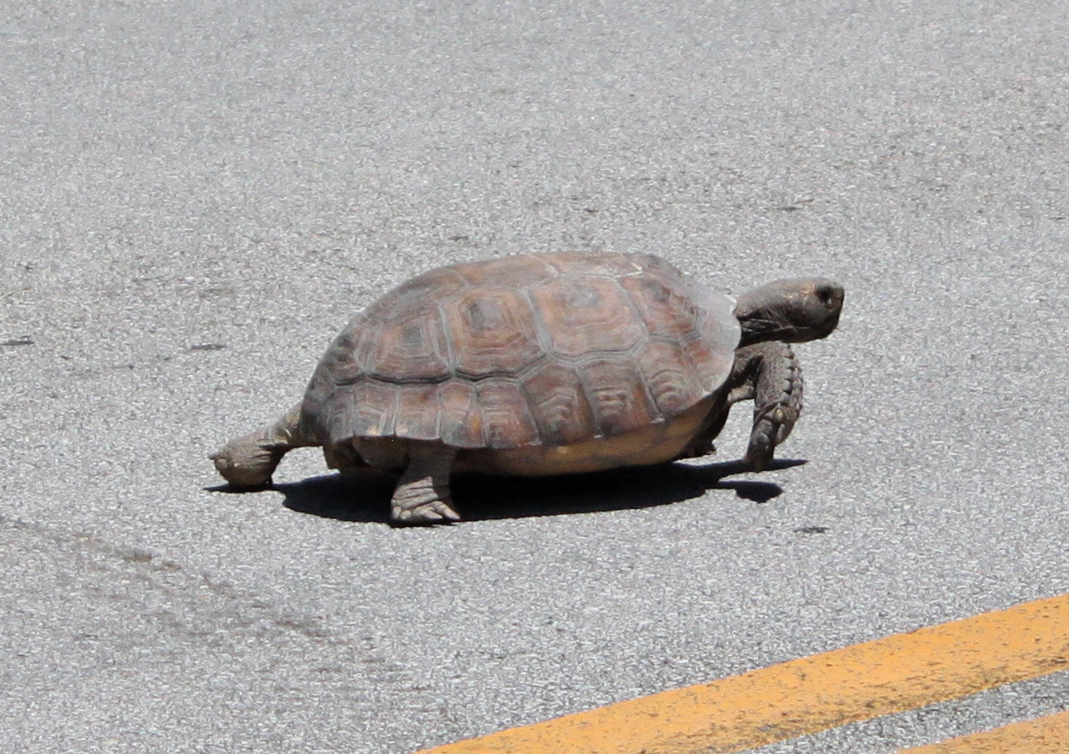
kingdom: Animalia
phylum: Chordata
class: Testudines
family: Testudinidae
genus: Gopherus
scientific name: Gopherus polyphemus
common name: Florida gopher tortoise
